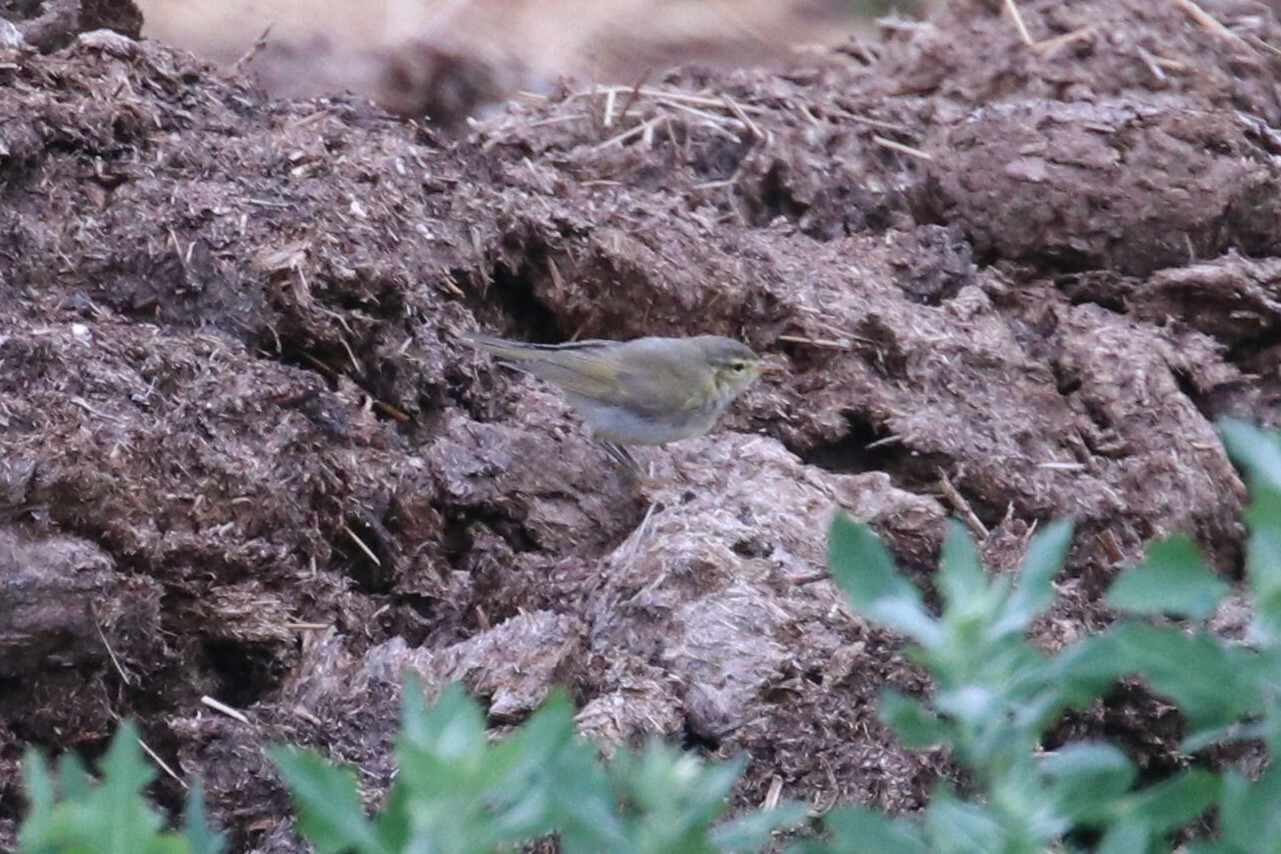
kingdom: Animalia
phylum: Chordata
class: Aves
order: Passeriformes
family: Phylloscopidae
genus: Phylloscopus
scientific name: Phylloscopus trochilus
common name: Willow warbler
